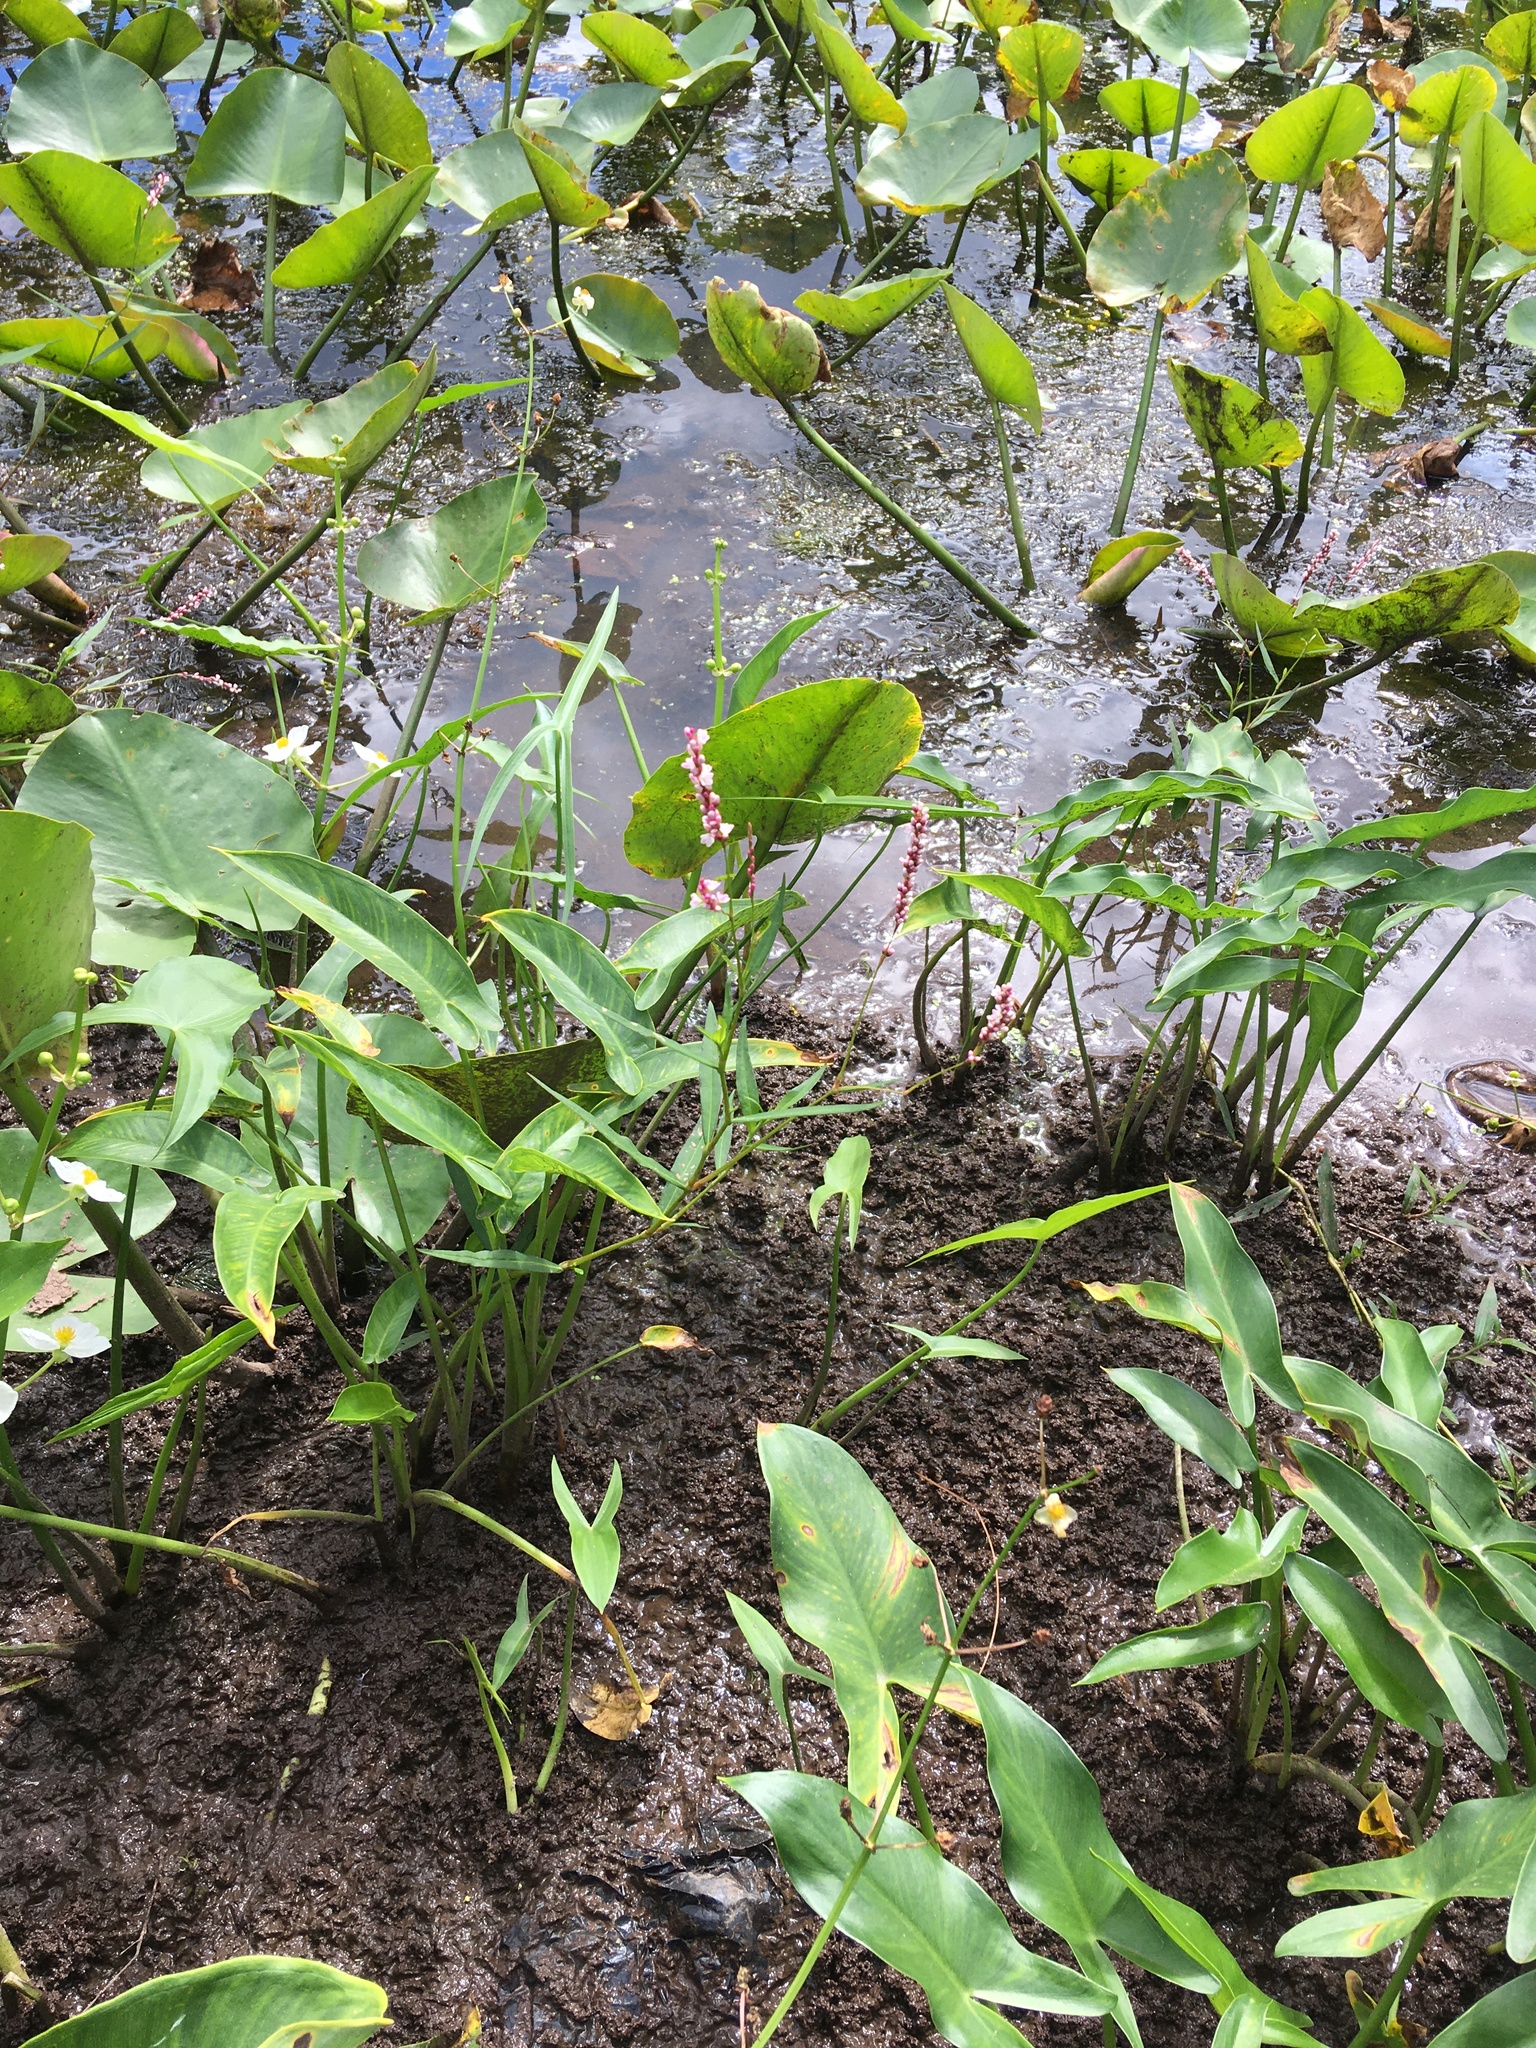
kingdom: Plantae
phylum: Tracheophyta
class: Magnoliopsida
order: Caryophyllales
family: Polygonaceae
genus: Persicaria
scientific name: Persicaria hydropiperoides
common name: Swamp smartweed
